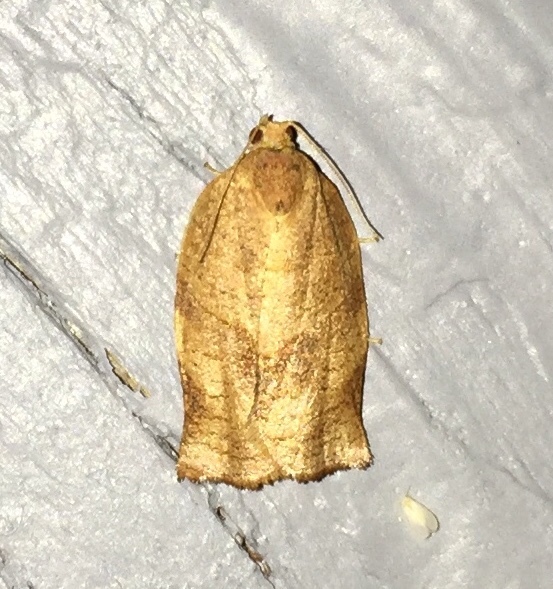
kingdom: Animalia
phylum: Arthropoda
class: Insecta
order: Lepidoptera
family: Tortricidae
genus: Choristoneura
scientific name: Choristoneura rosaceana
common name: Oblique-banded leafroller moth
